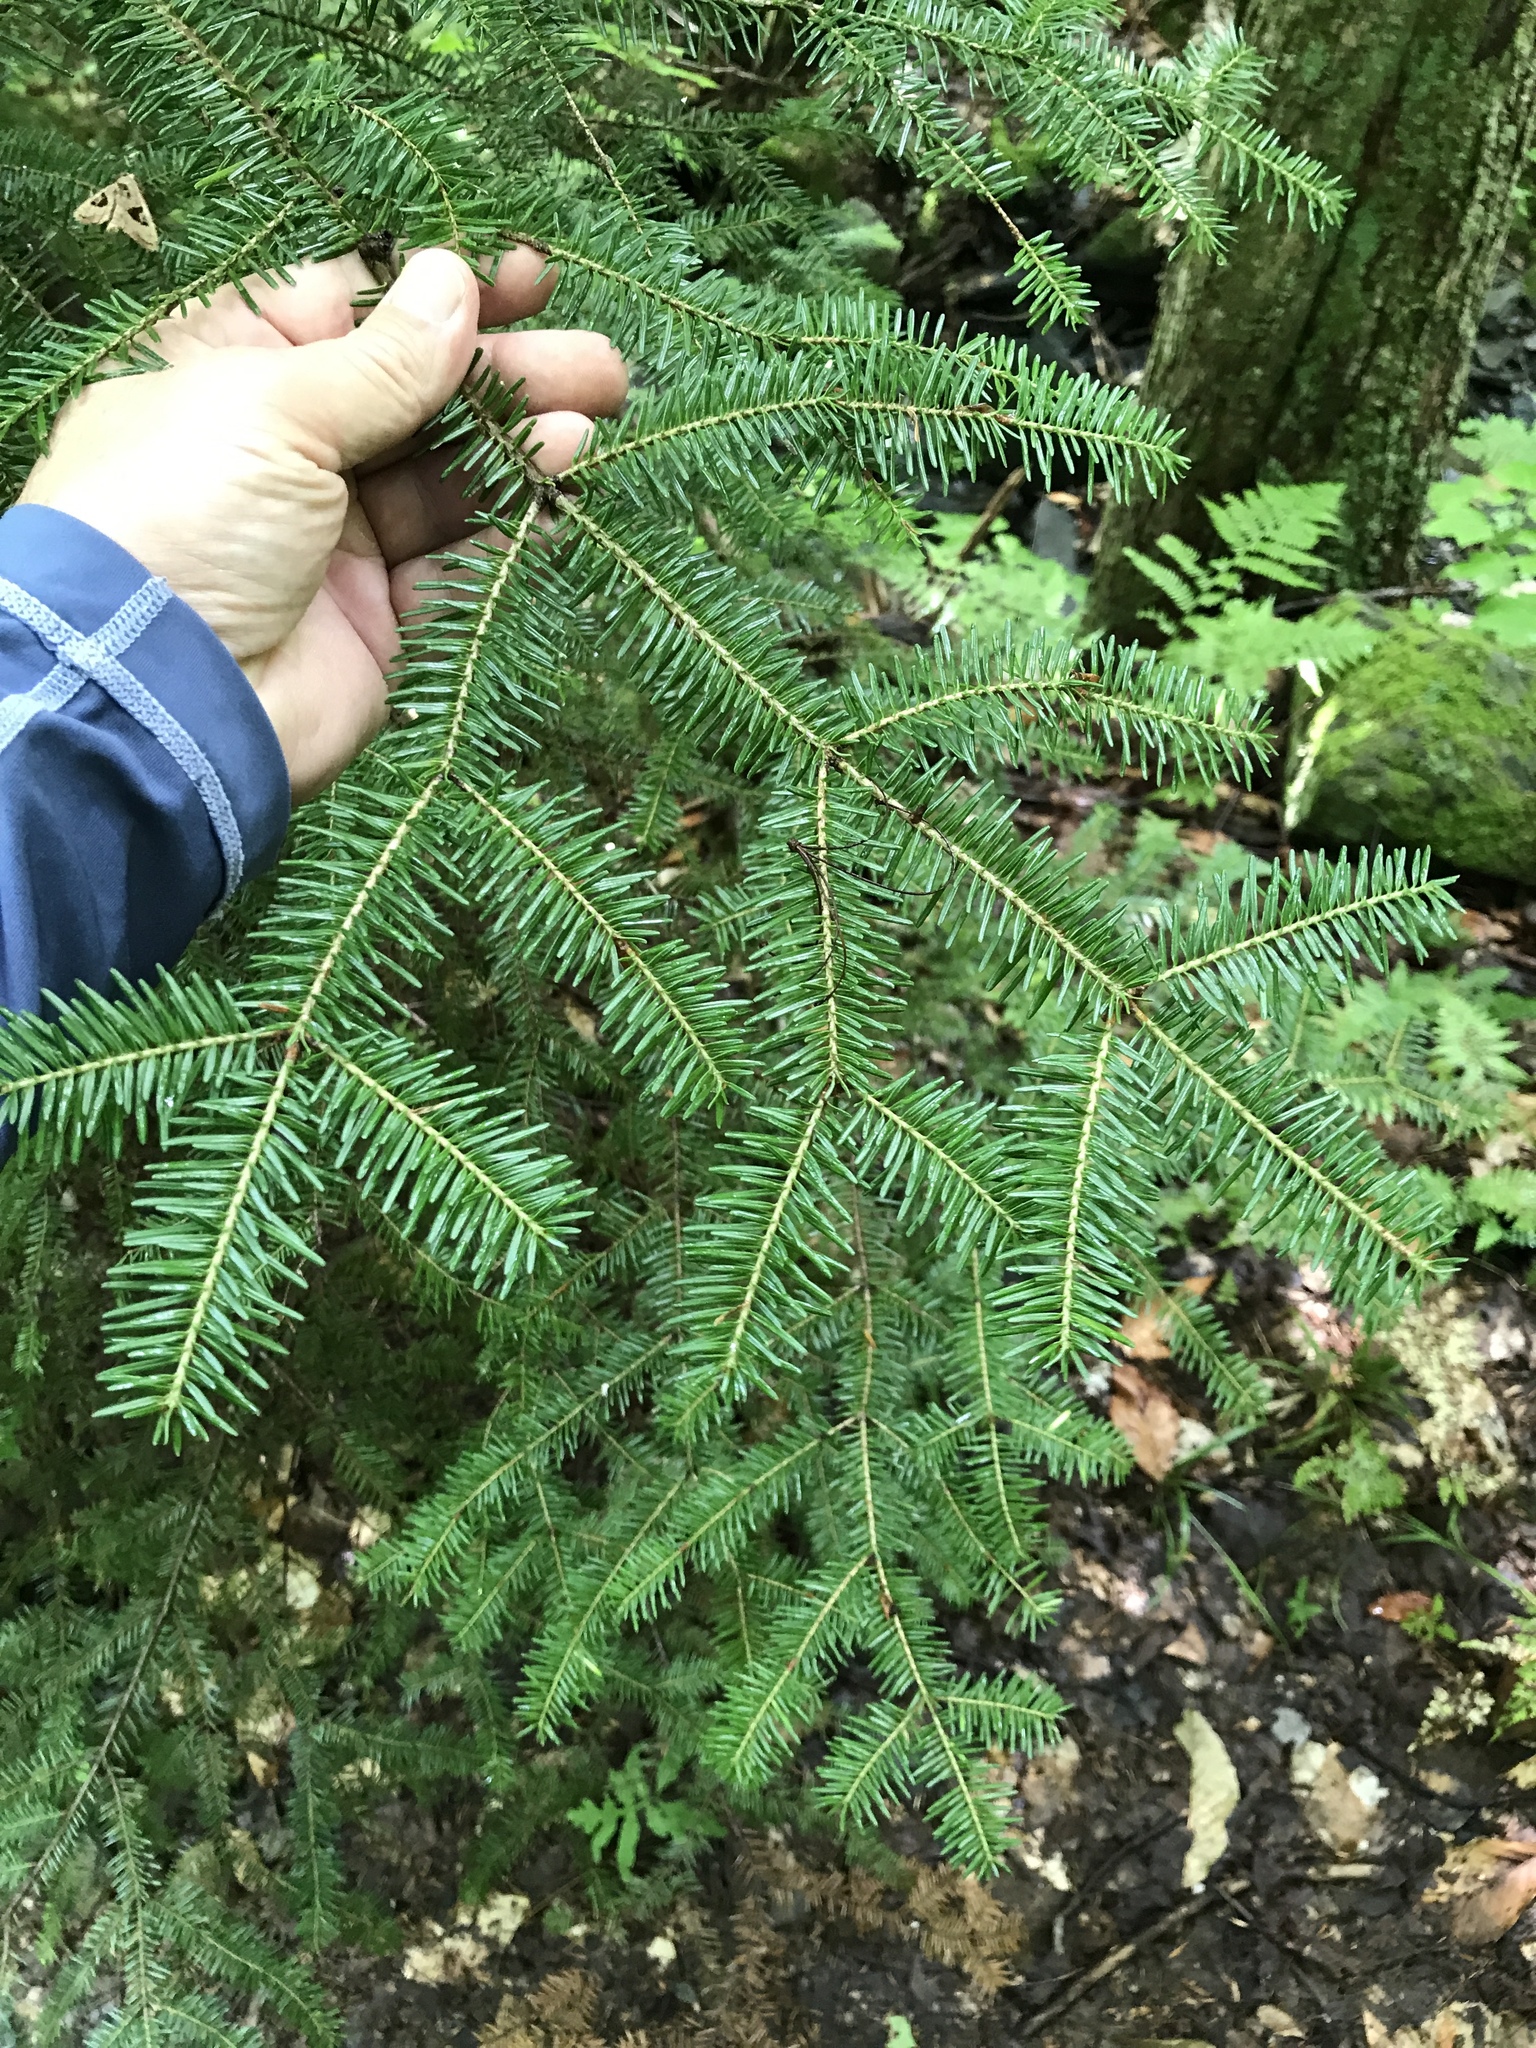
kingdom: Plantae
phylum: Tracheophyta
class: Pinopsida
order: Pinales
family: Pinaceae
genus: Abies
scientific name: Abies balsamea
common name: Balsam fir
